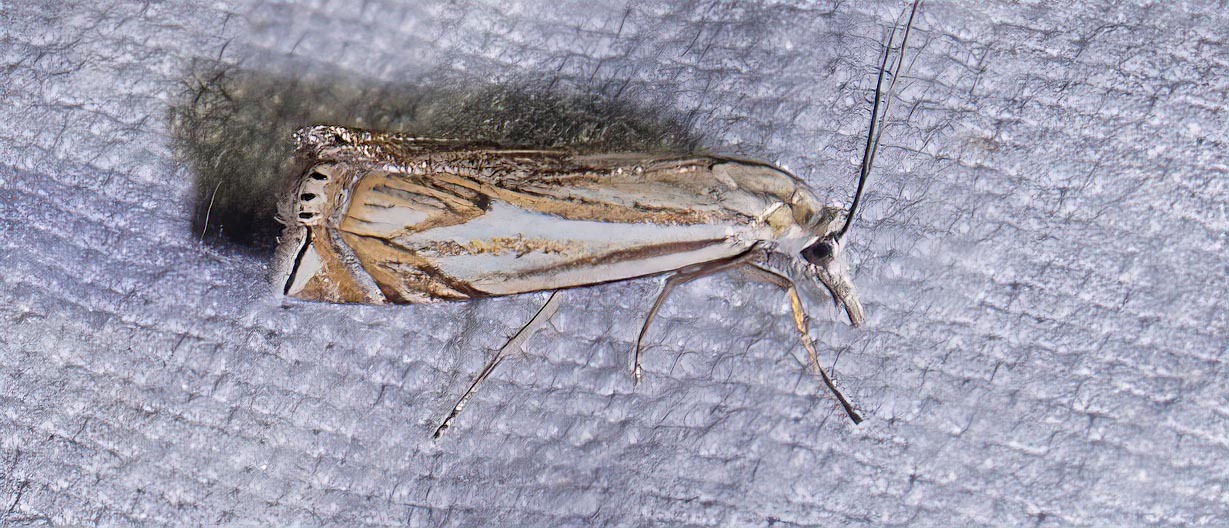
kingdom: Animalia
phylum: Arthropoda
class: Insecta
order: Lepidoptera
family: Crambidae
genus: Crambus
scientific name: Crambus nemorella
